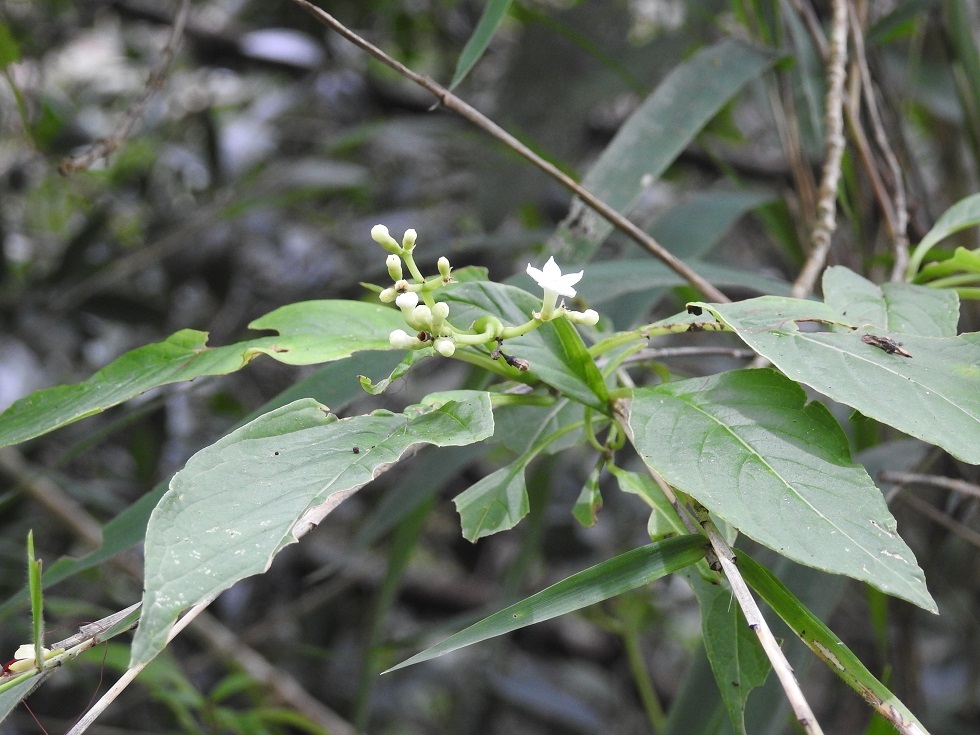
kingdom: Plantae
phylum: Tracheophyta
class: Magnoliopsida
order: Gentianales
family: Rubiaceae
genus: Eumachia
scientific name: Eumachia microdon
